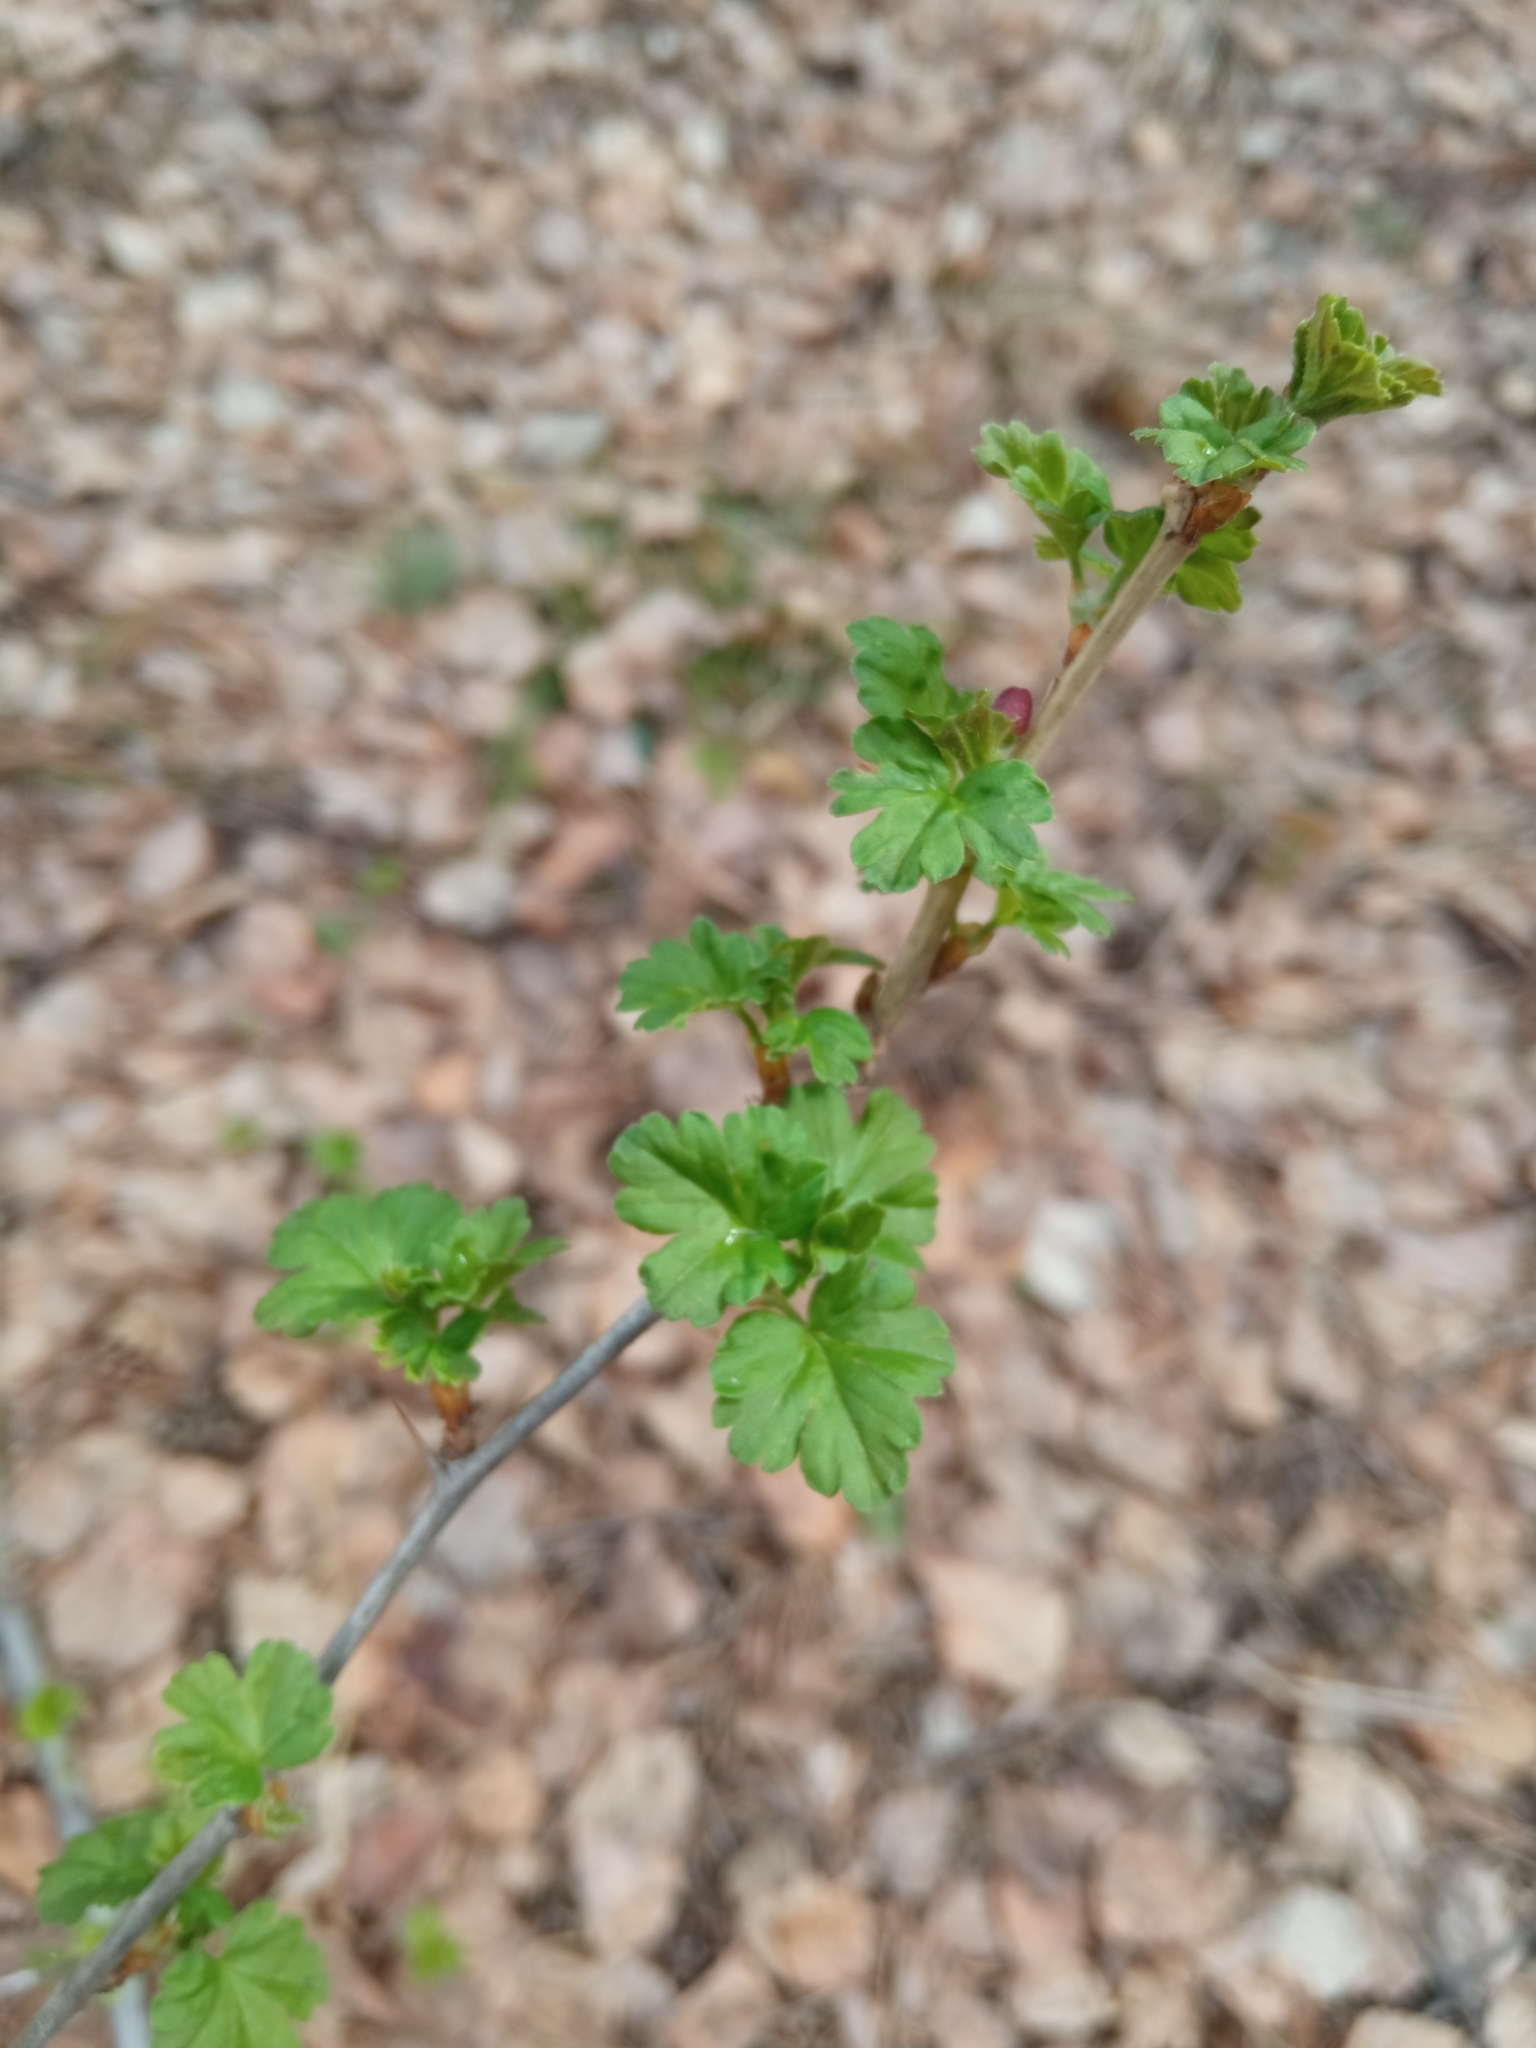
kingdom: Plantae
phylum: Tracheophyta
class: Magnoliopsida
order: Saxifragales
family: Grossulariaceae
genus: Ribes
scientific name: Ribes uva-crispa
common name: Gooseberry
